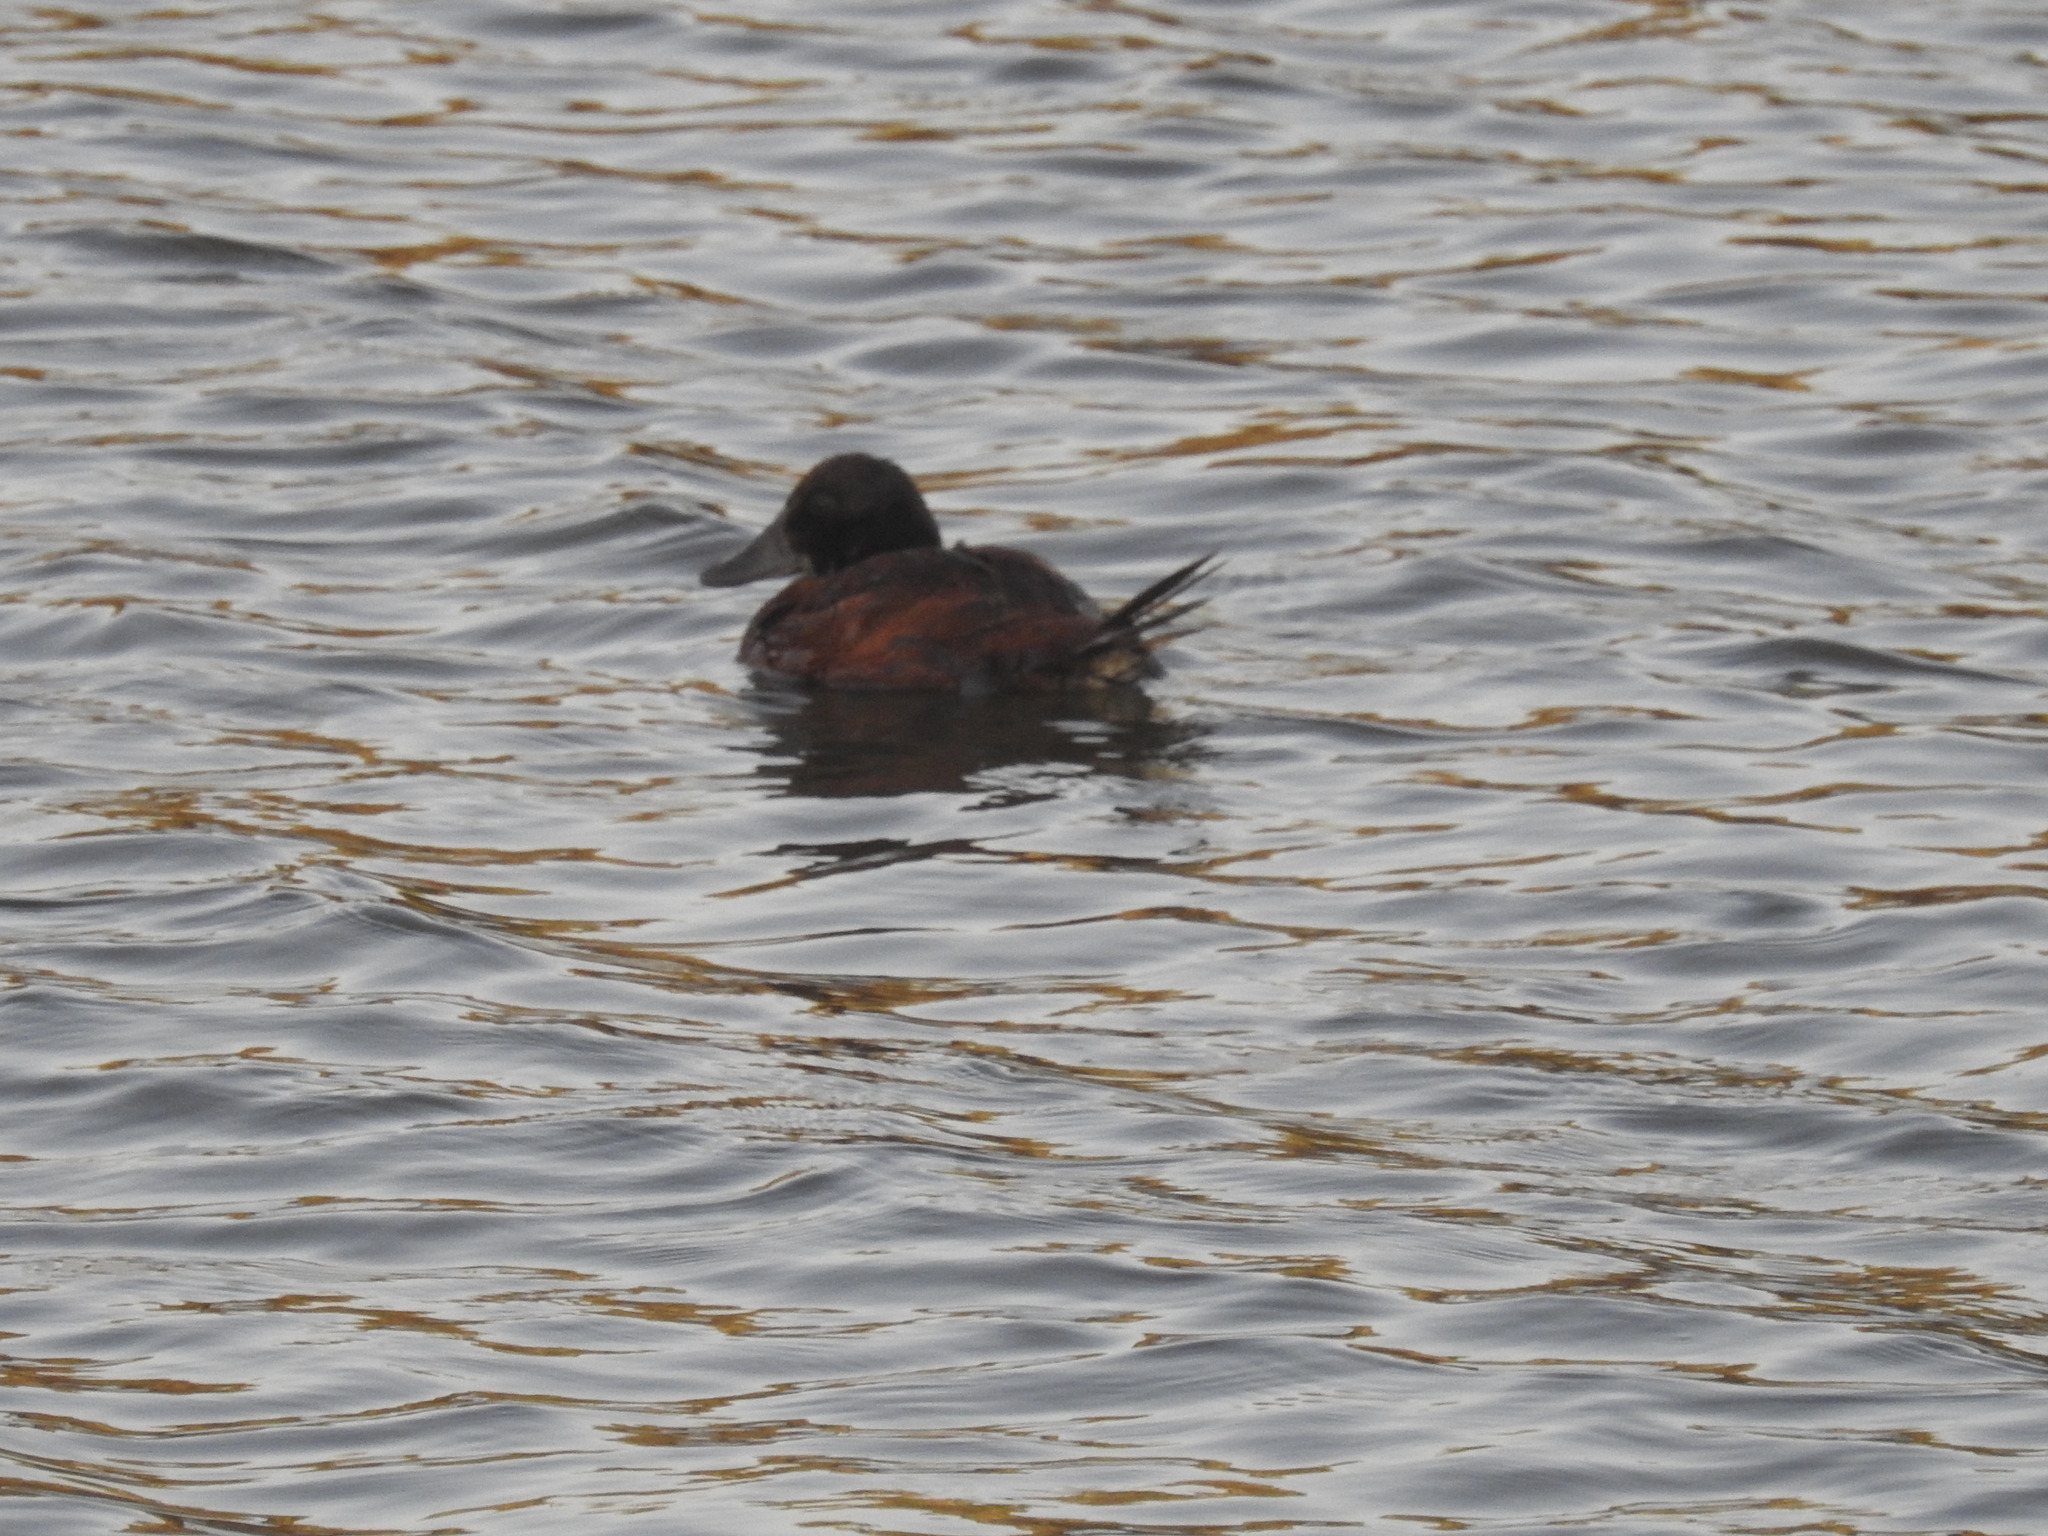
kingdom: Animalia
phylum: Chordata
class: Aves
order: Anseriformes
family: Anatidae
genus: Oxyura
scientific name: Oxyura vittata
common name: Lake duck
